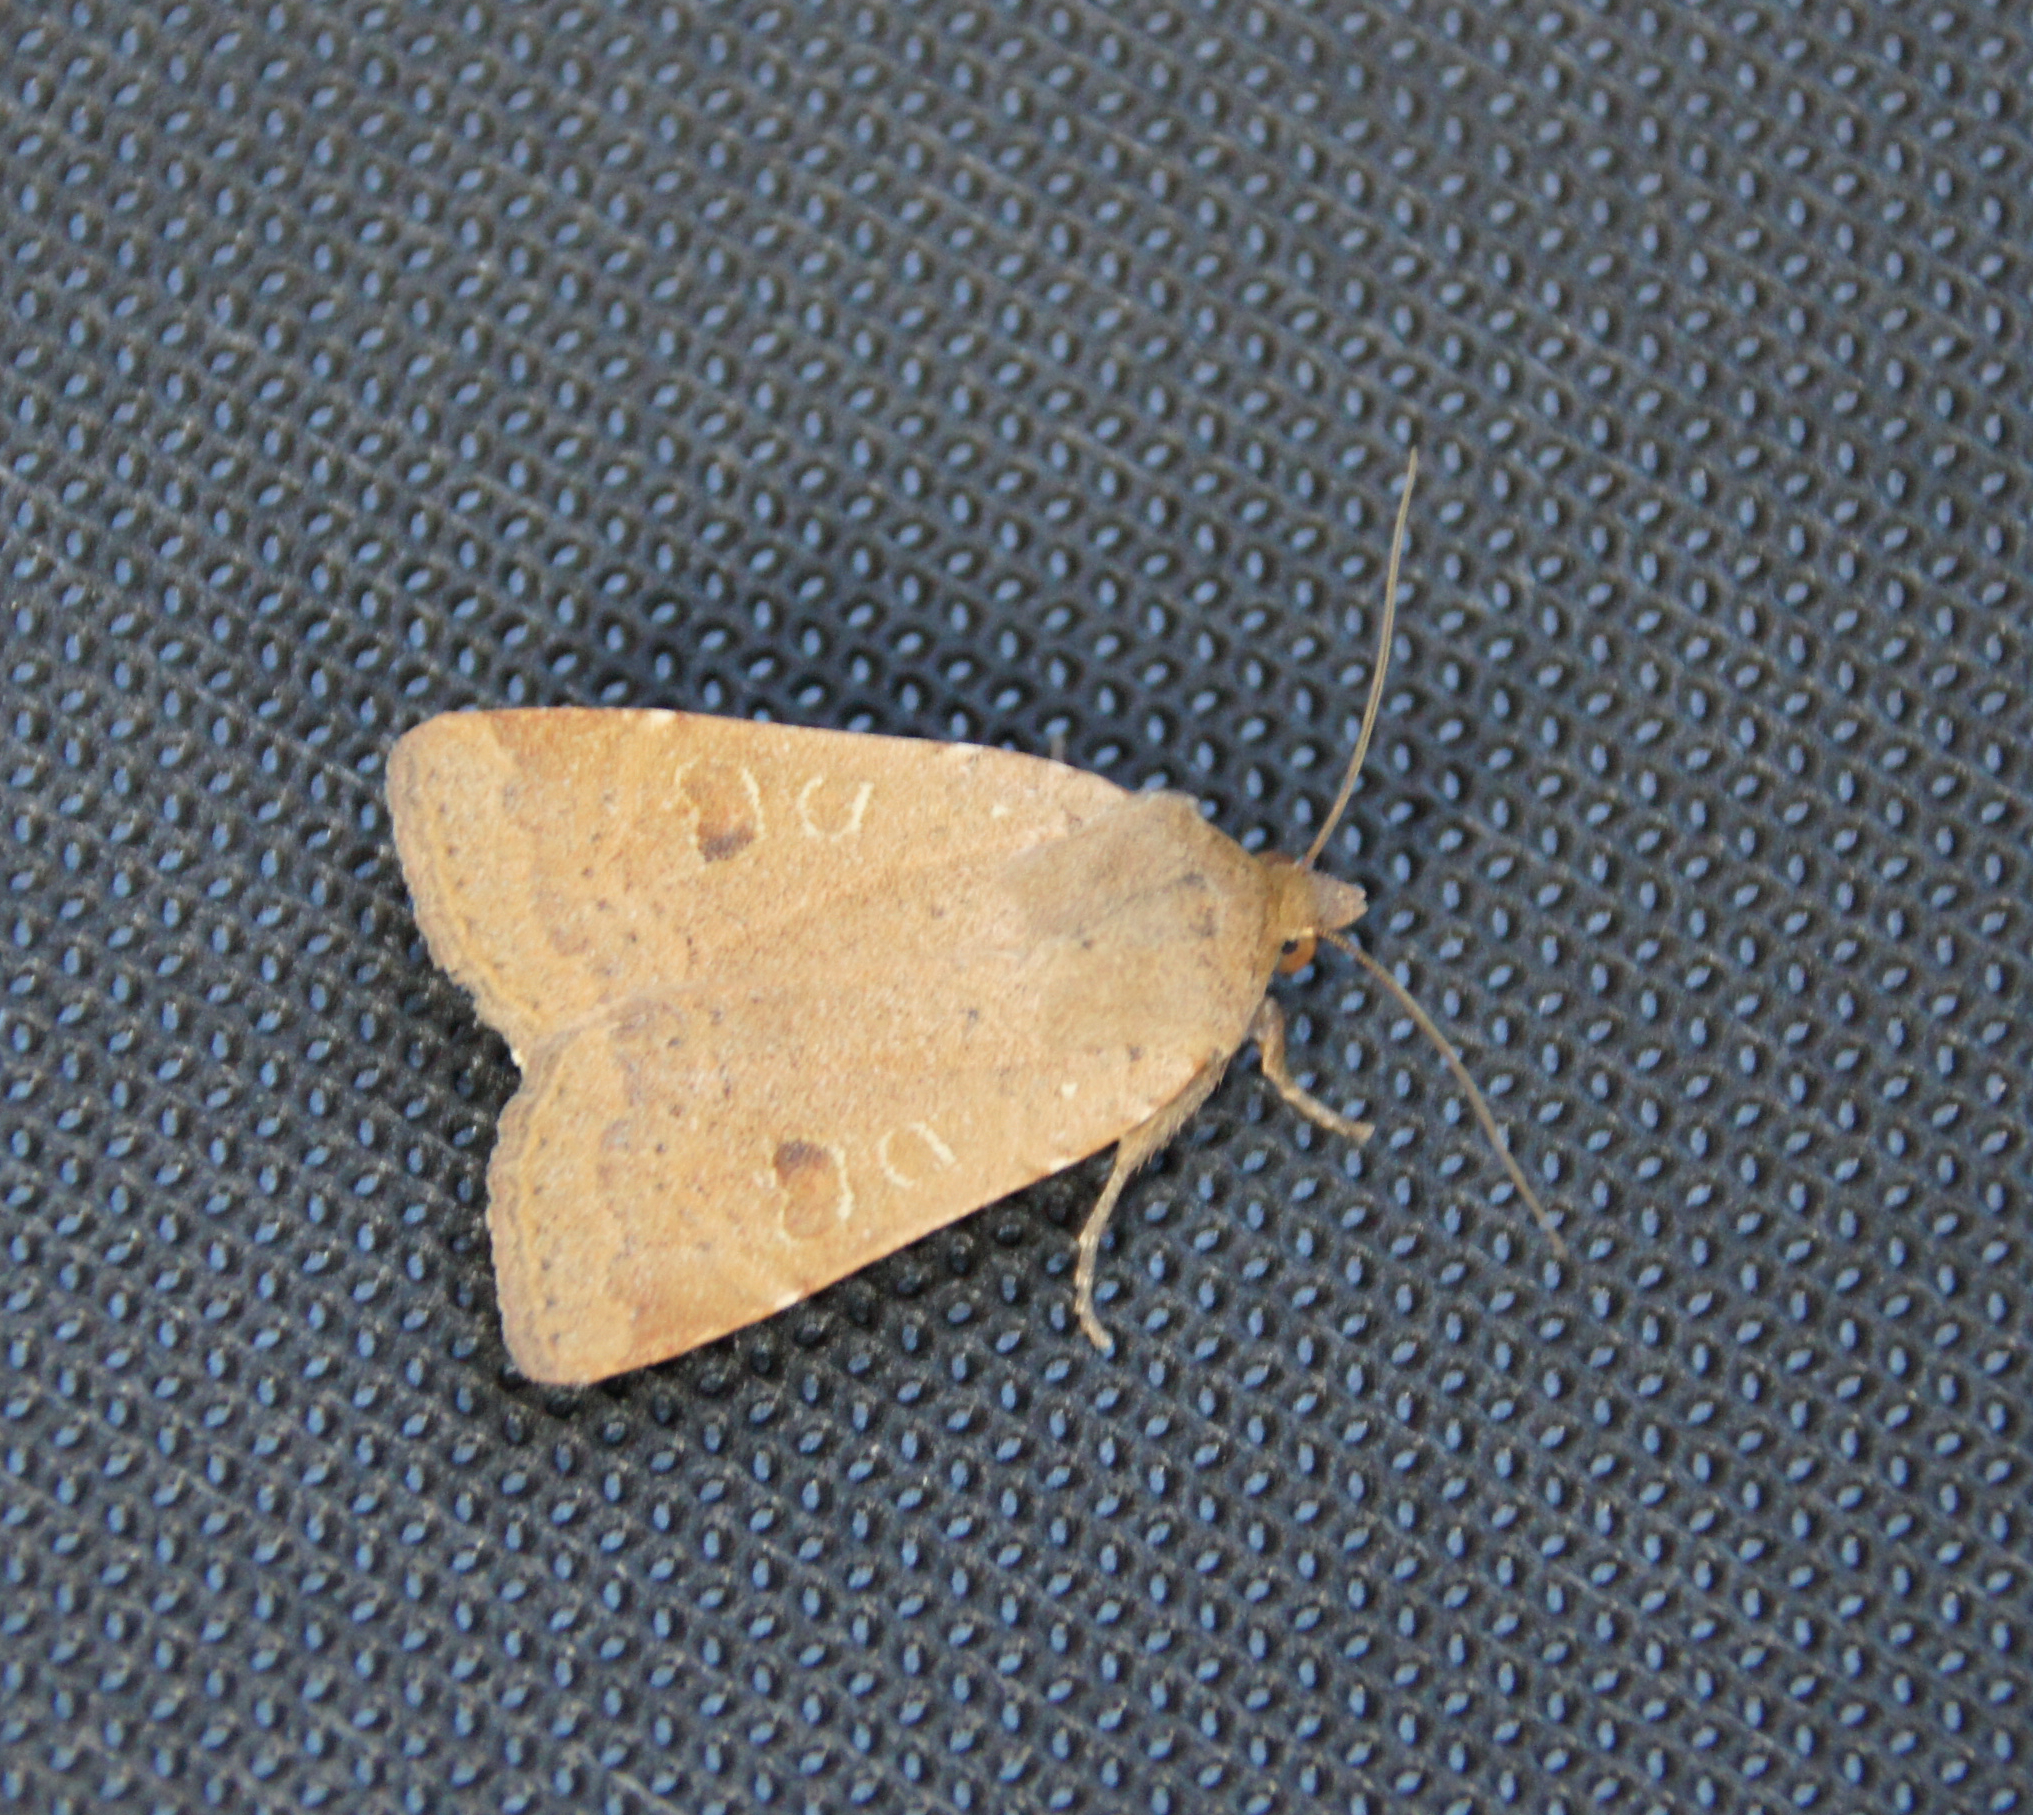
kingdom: Animalia
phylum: Arthropoda
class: Insecta
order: Lepidoptera
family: Noctuidae
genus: Noctua
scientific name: Noctua comes
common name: Lesser yellow underwing
